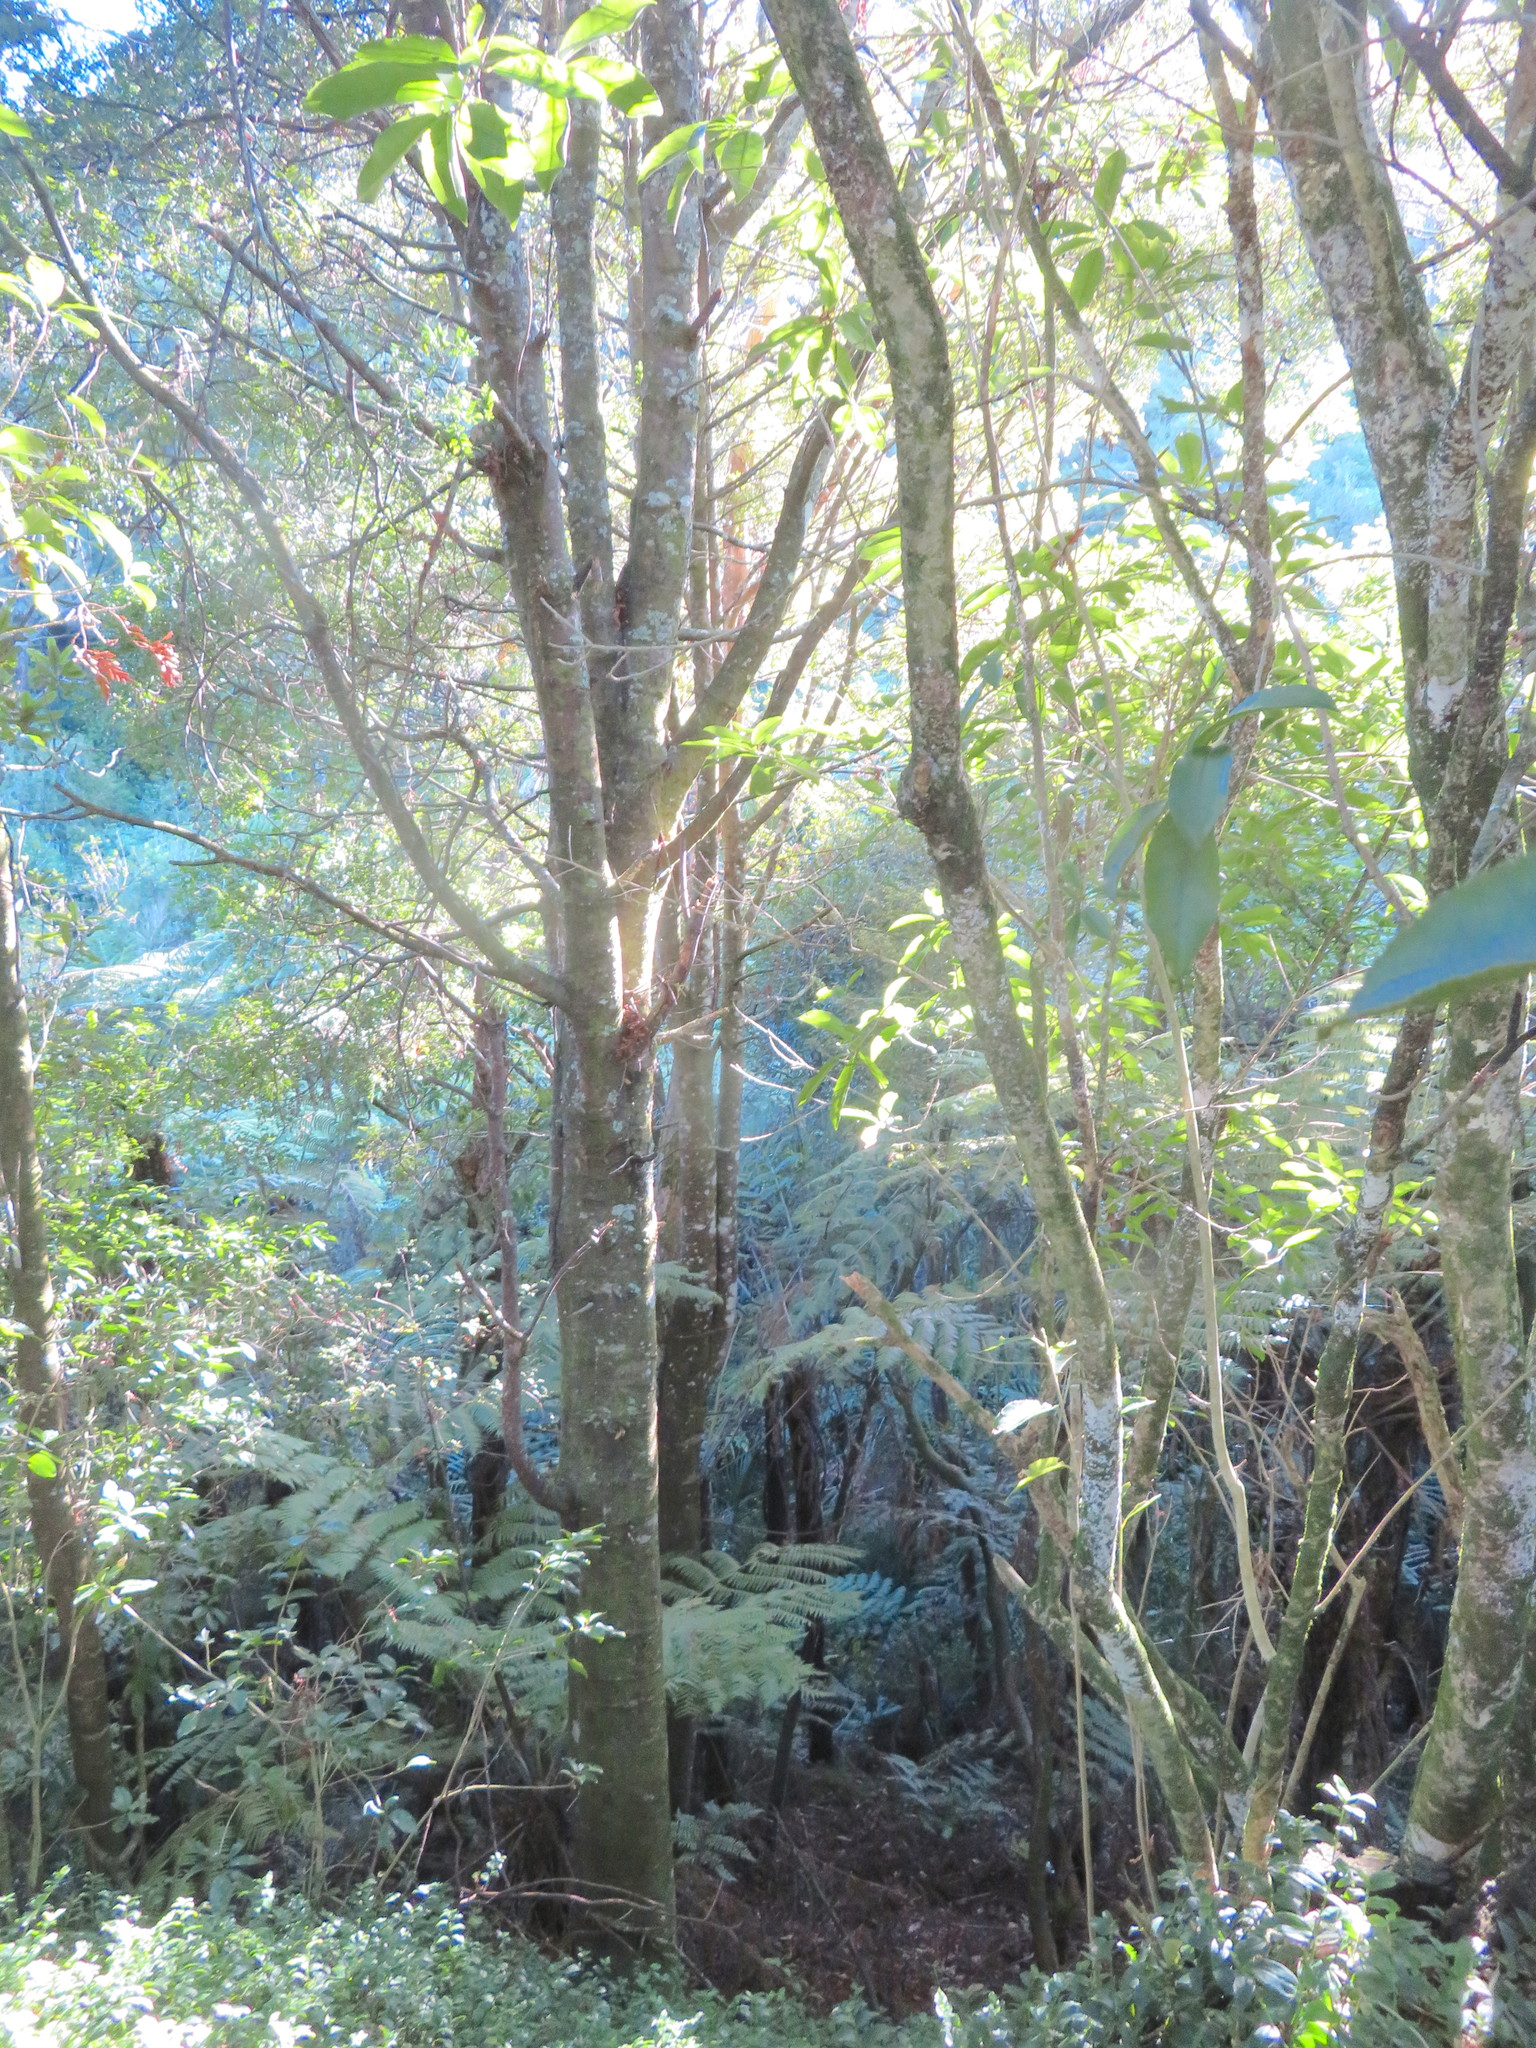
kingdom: Plantae
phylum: Tracheophyta
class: Pinopsida
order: Pinales
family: Phyllocladaceae
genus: Phyllocladus
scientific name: Phyllocladus trichomanoides
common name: Celery pine
